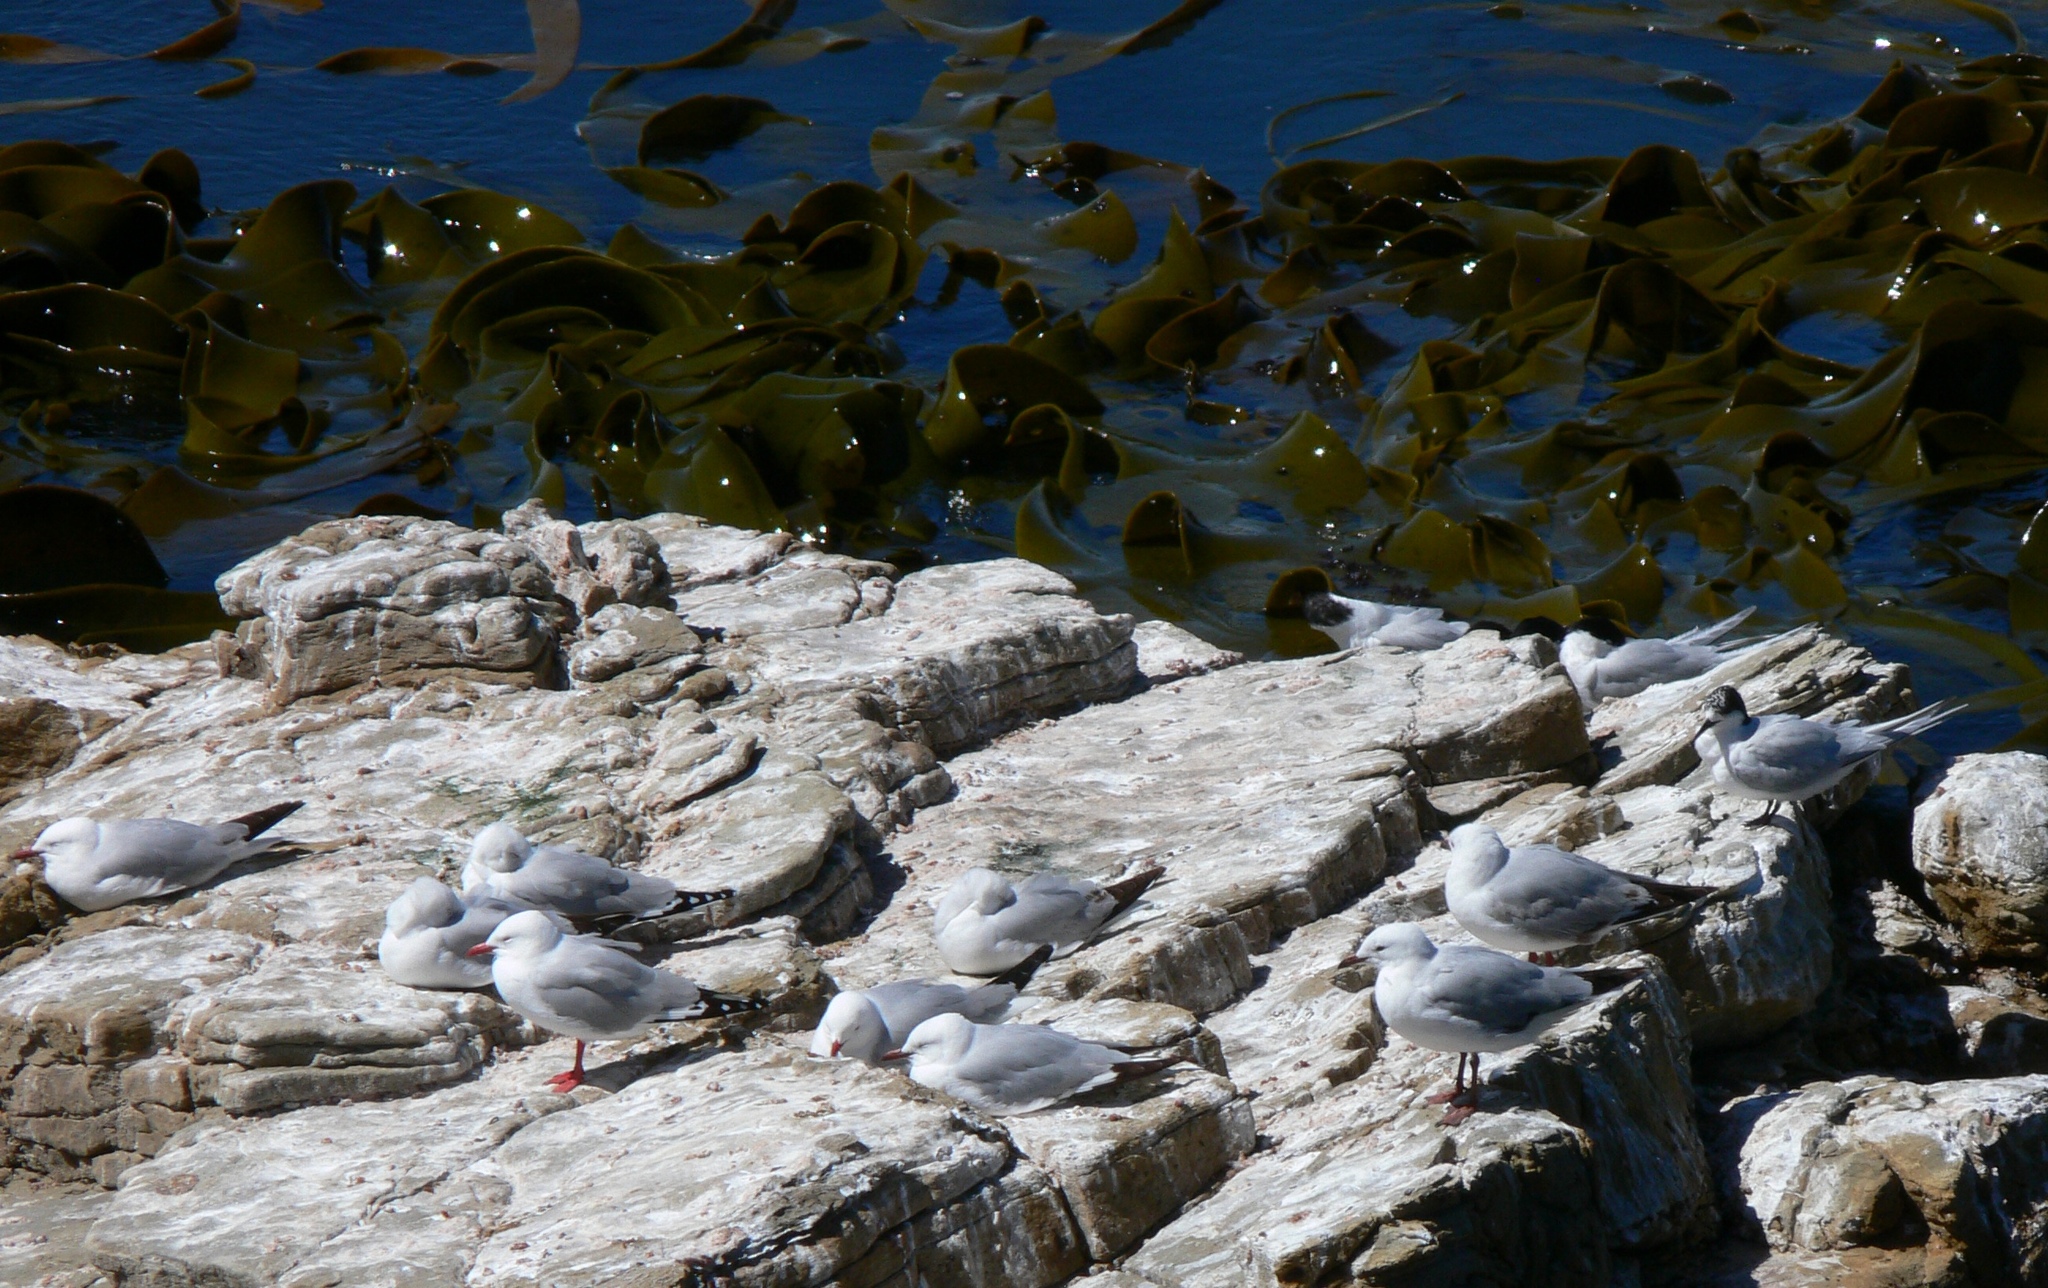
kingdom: Animalia
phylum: Chordata
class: Aves
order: Charadriiformes
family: Laridae
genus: Chroicocephalus
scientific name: Chroicocephalus novaehollandiae
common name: Silver gull
